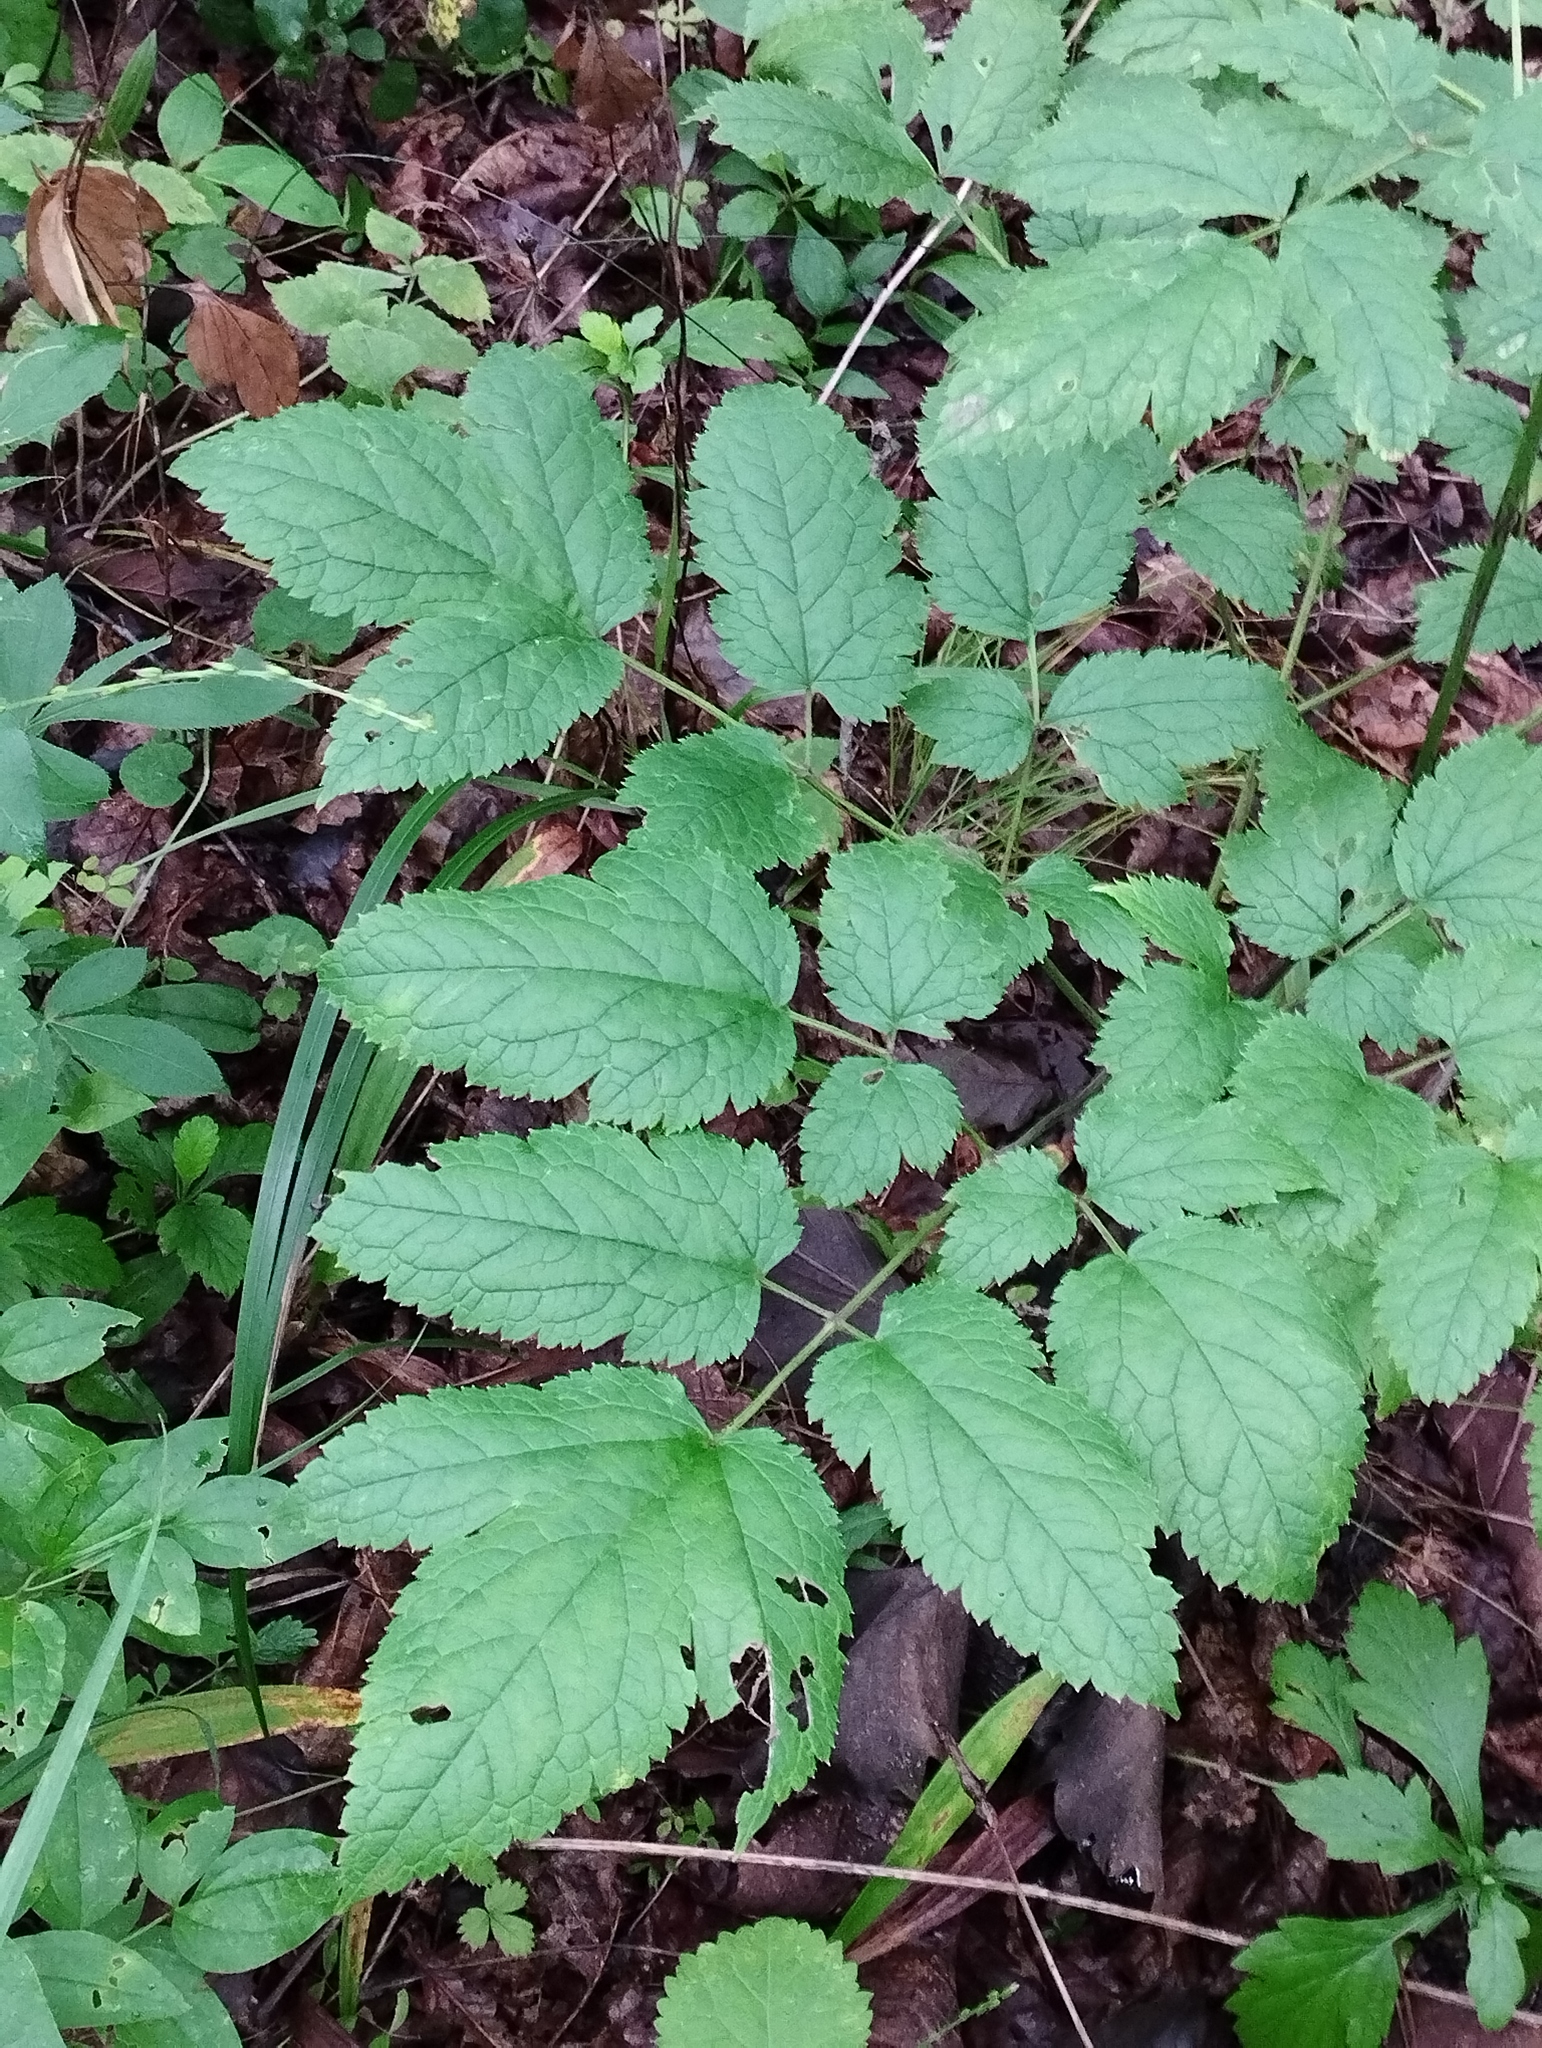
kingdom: Plantae
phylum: Tracheophyta
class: Magnoliopsida
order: Ranunculales
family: Ranunculaceae
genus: Actaea
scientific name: Actaea dahurica
